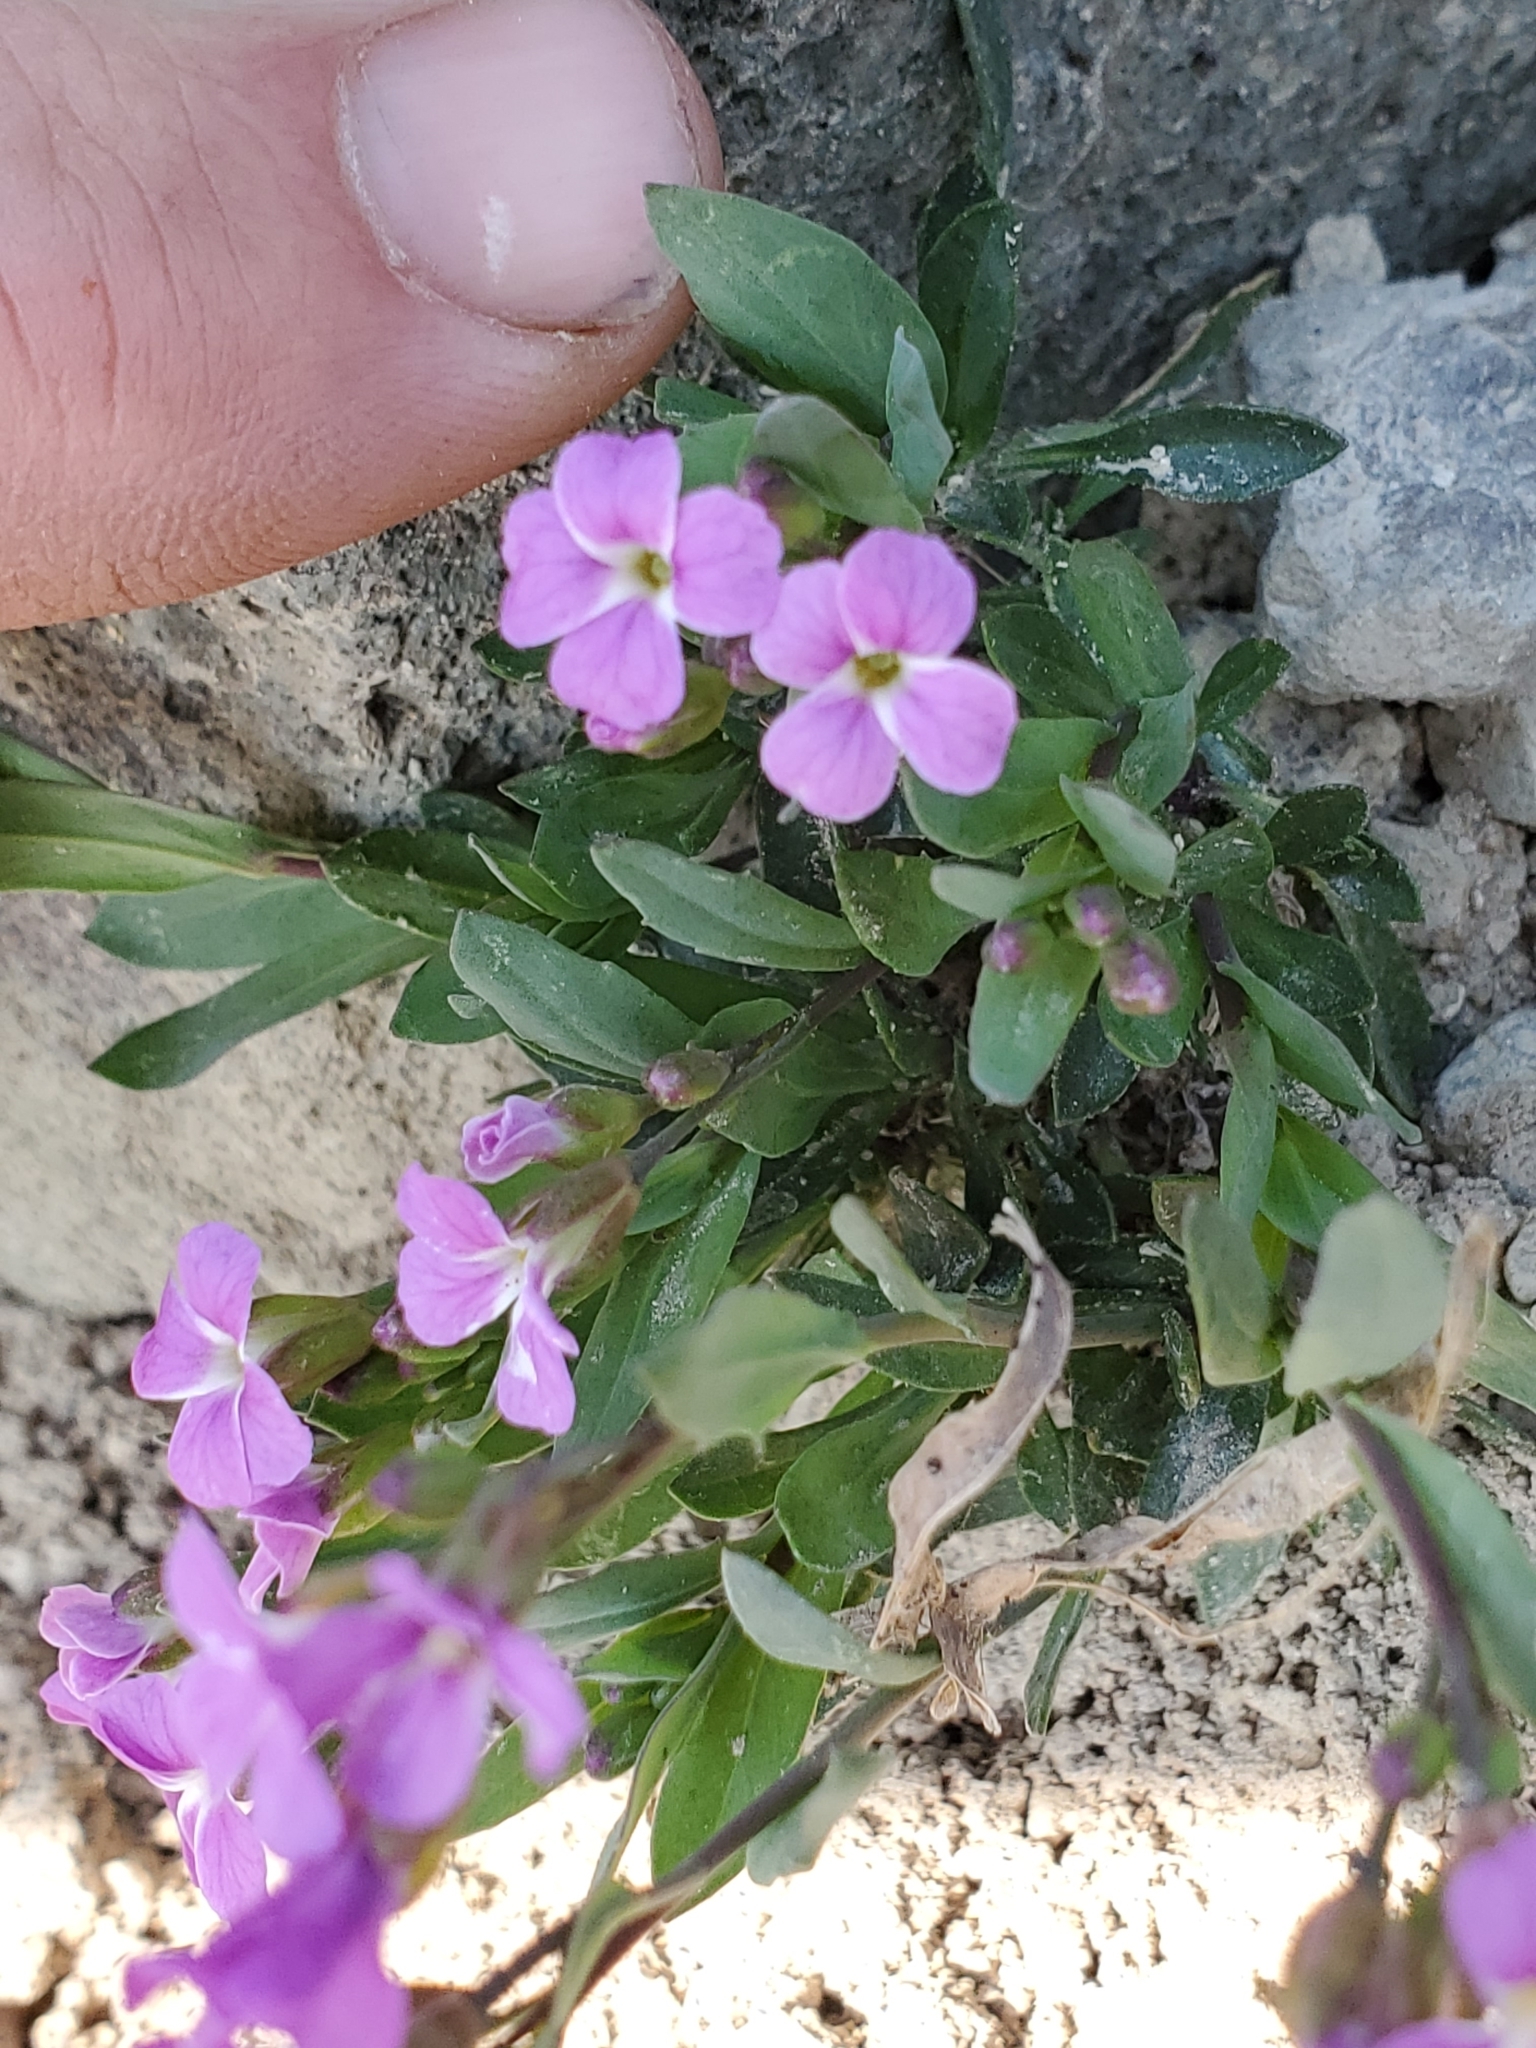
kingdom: Plantae
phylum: Tracheophyta
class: Magnoliopsida
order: Brassicales
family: Brassicaceae
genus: Boechera
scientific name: Boechera lyallii
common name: Lyall's rockcress
